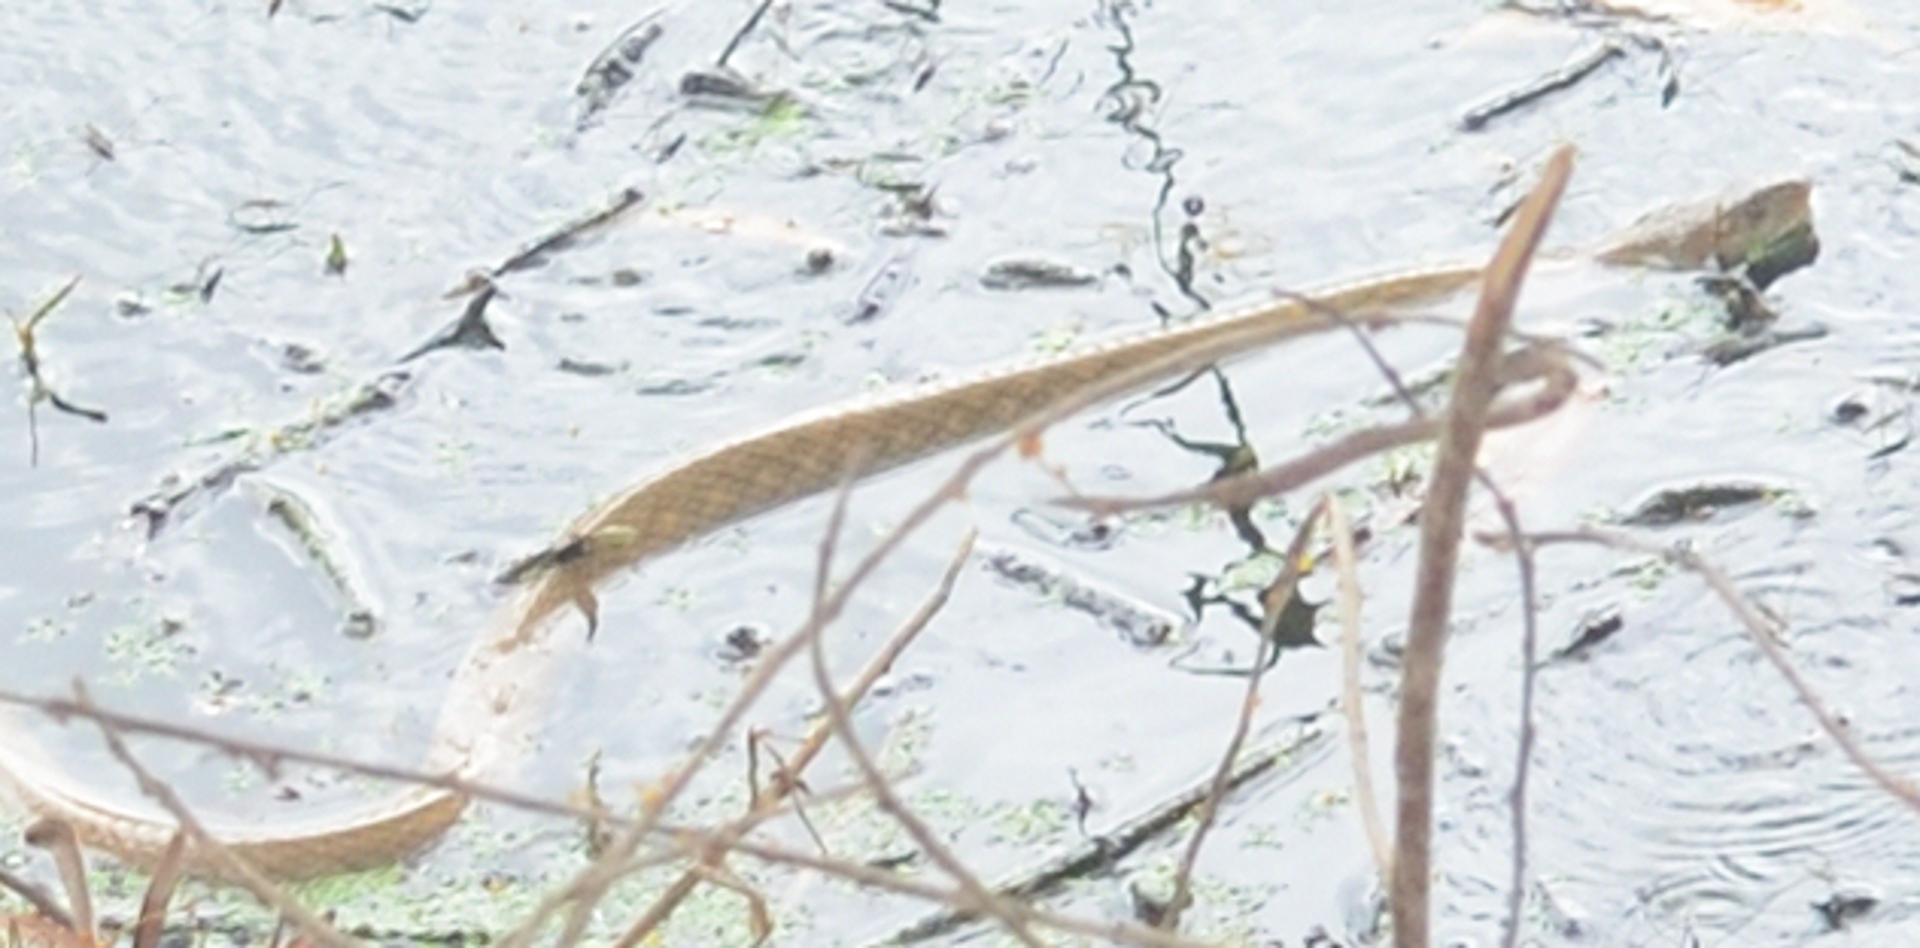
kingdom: Animalia
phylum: Chordata
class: Squamata
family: Colubridae
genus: Fowlea
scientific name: Fowlea piscator
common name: Asiatic water snake
